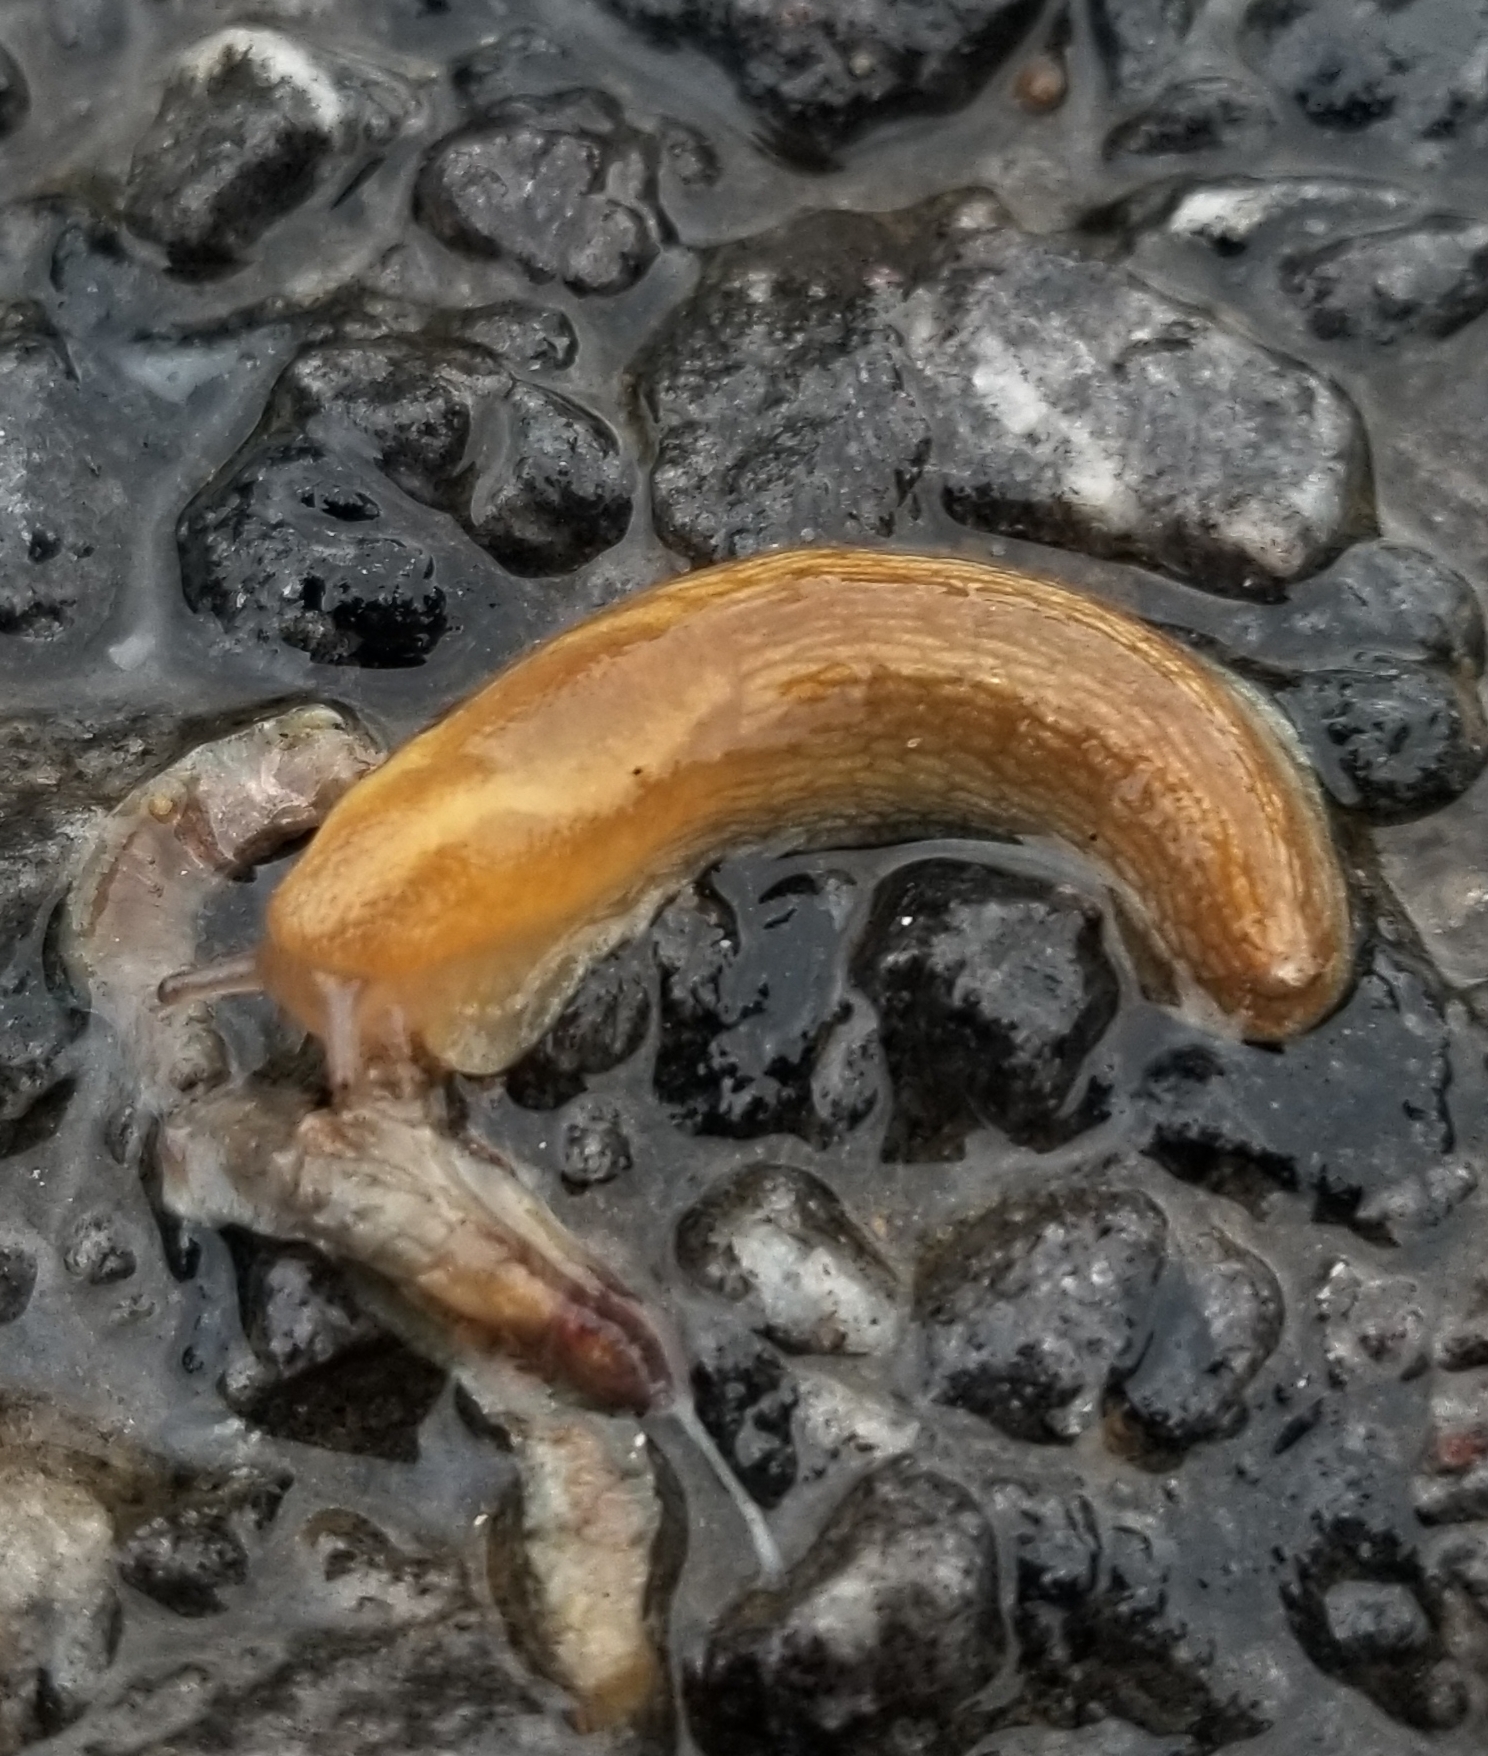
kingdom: Animalia
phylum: Mollusca
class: Gastropoda
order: Stylommatophora
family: Arionidae
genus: Arion
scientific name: Arion subfuscus
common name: Dusky arion
